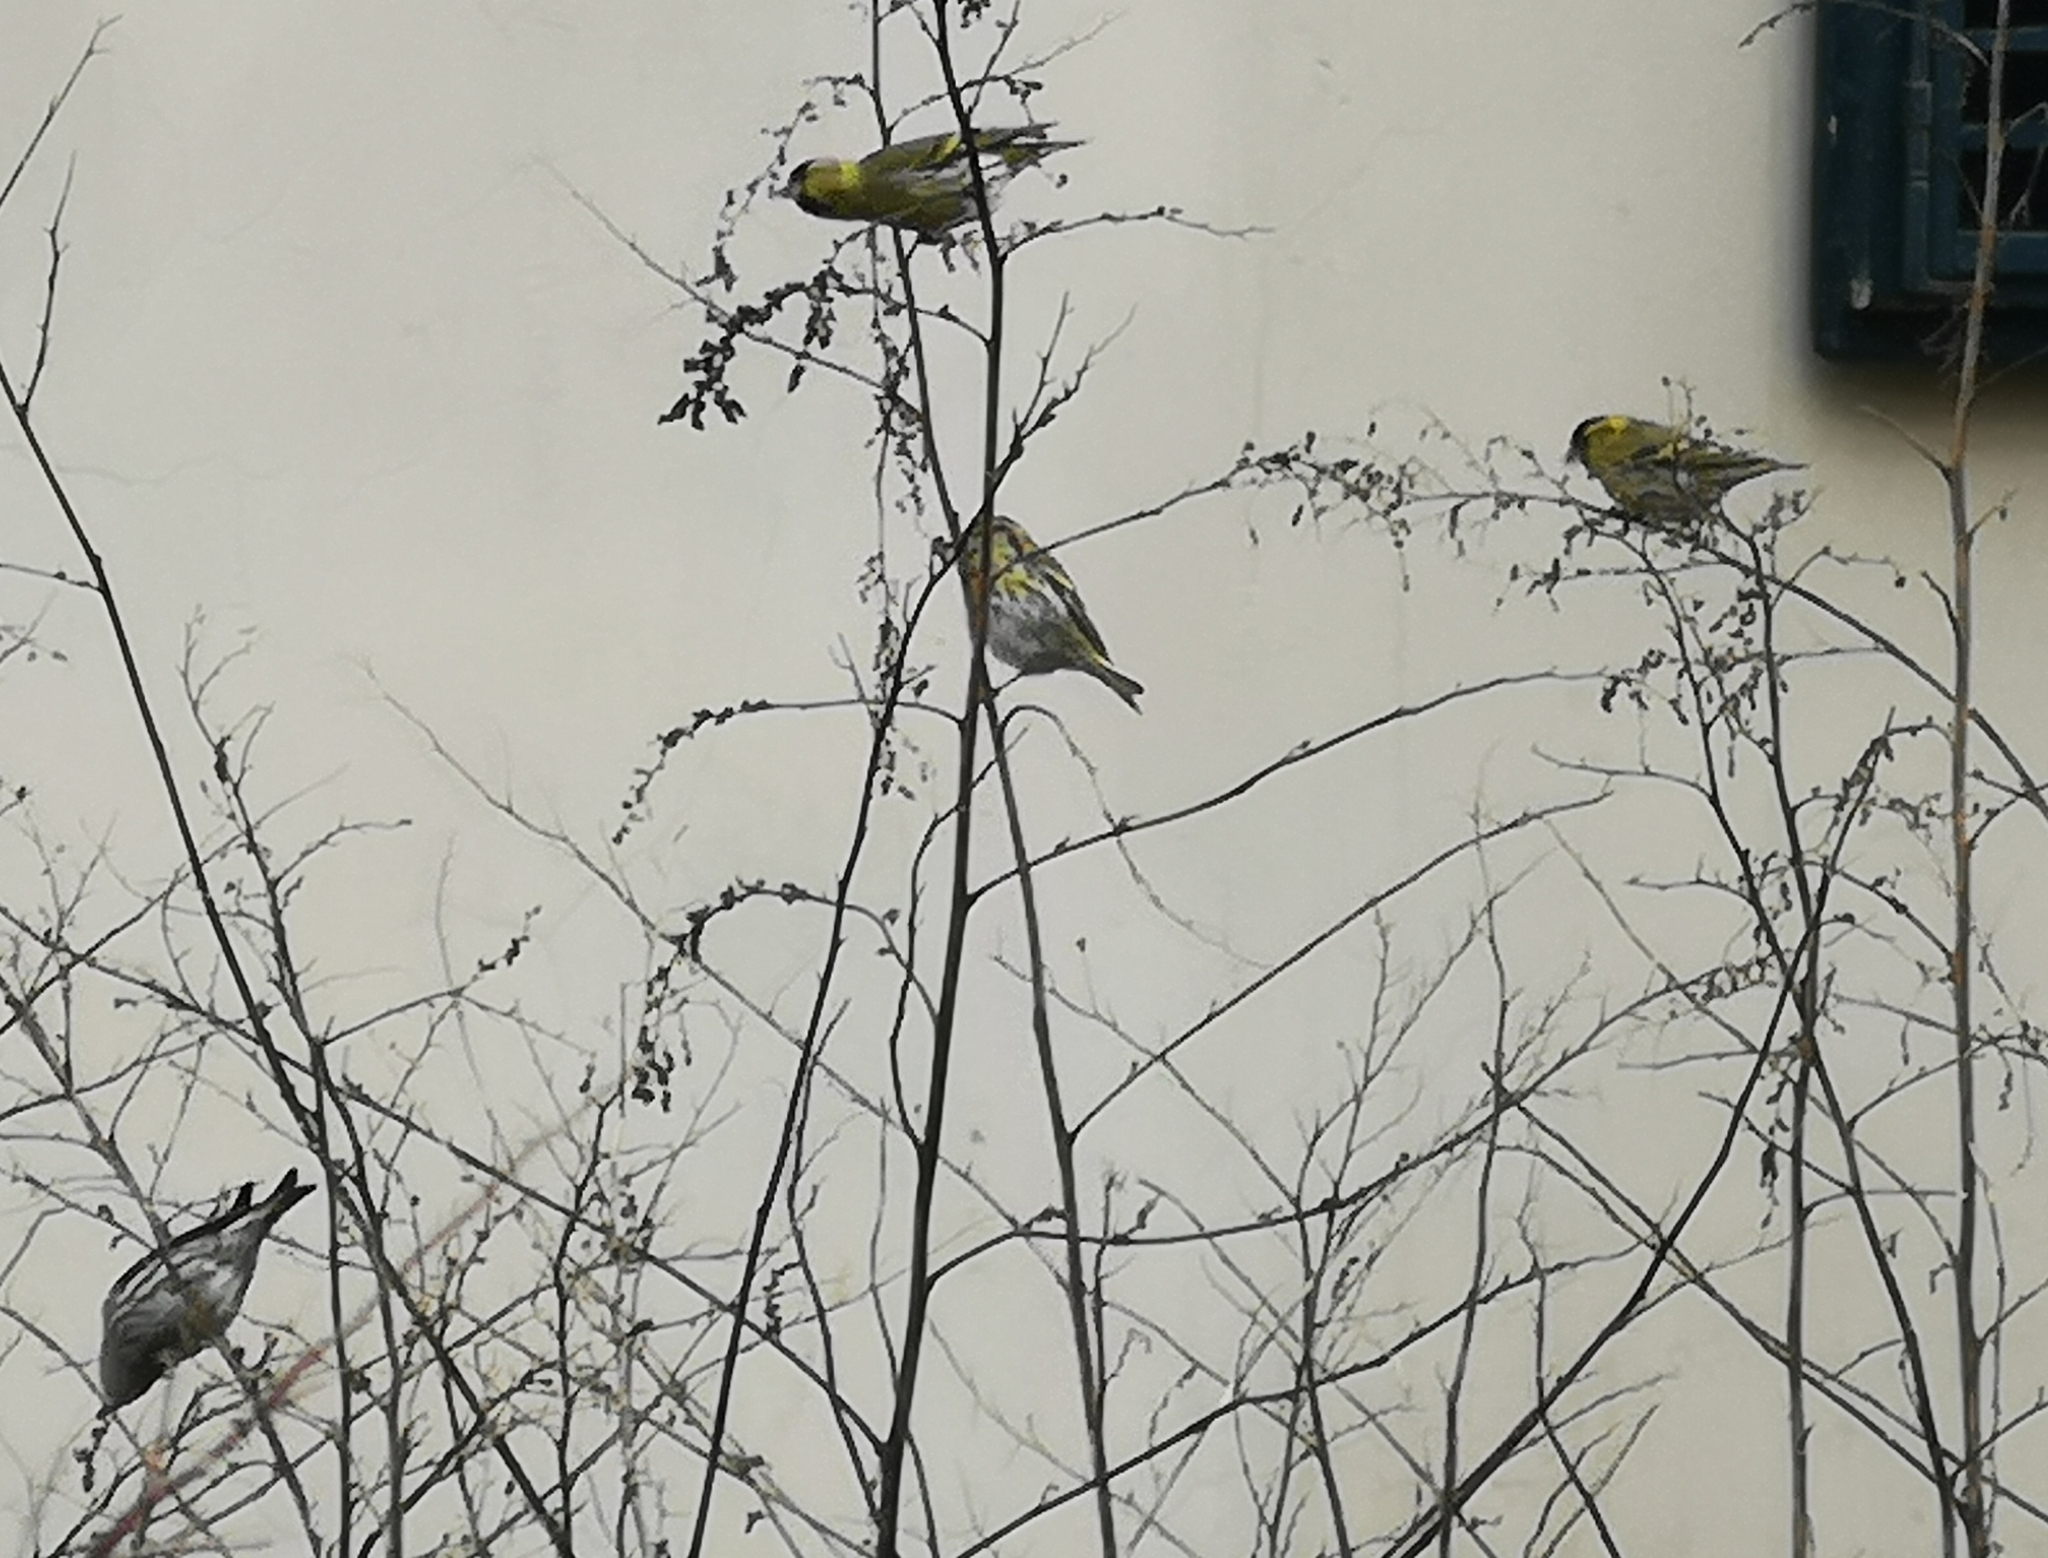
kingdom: Animalia
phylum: Chordata
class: Aves
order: Passeriformes
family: Fringillidae
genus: Spinus
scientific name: Spinus spinus
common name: Eurasian siskin
